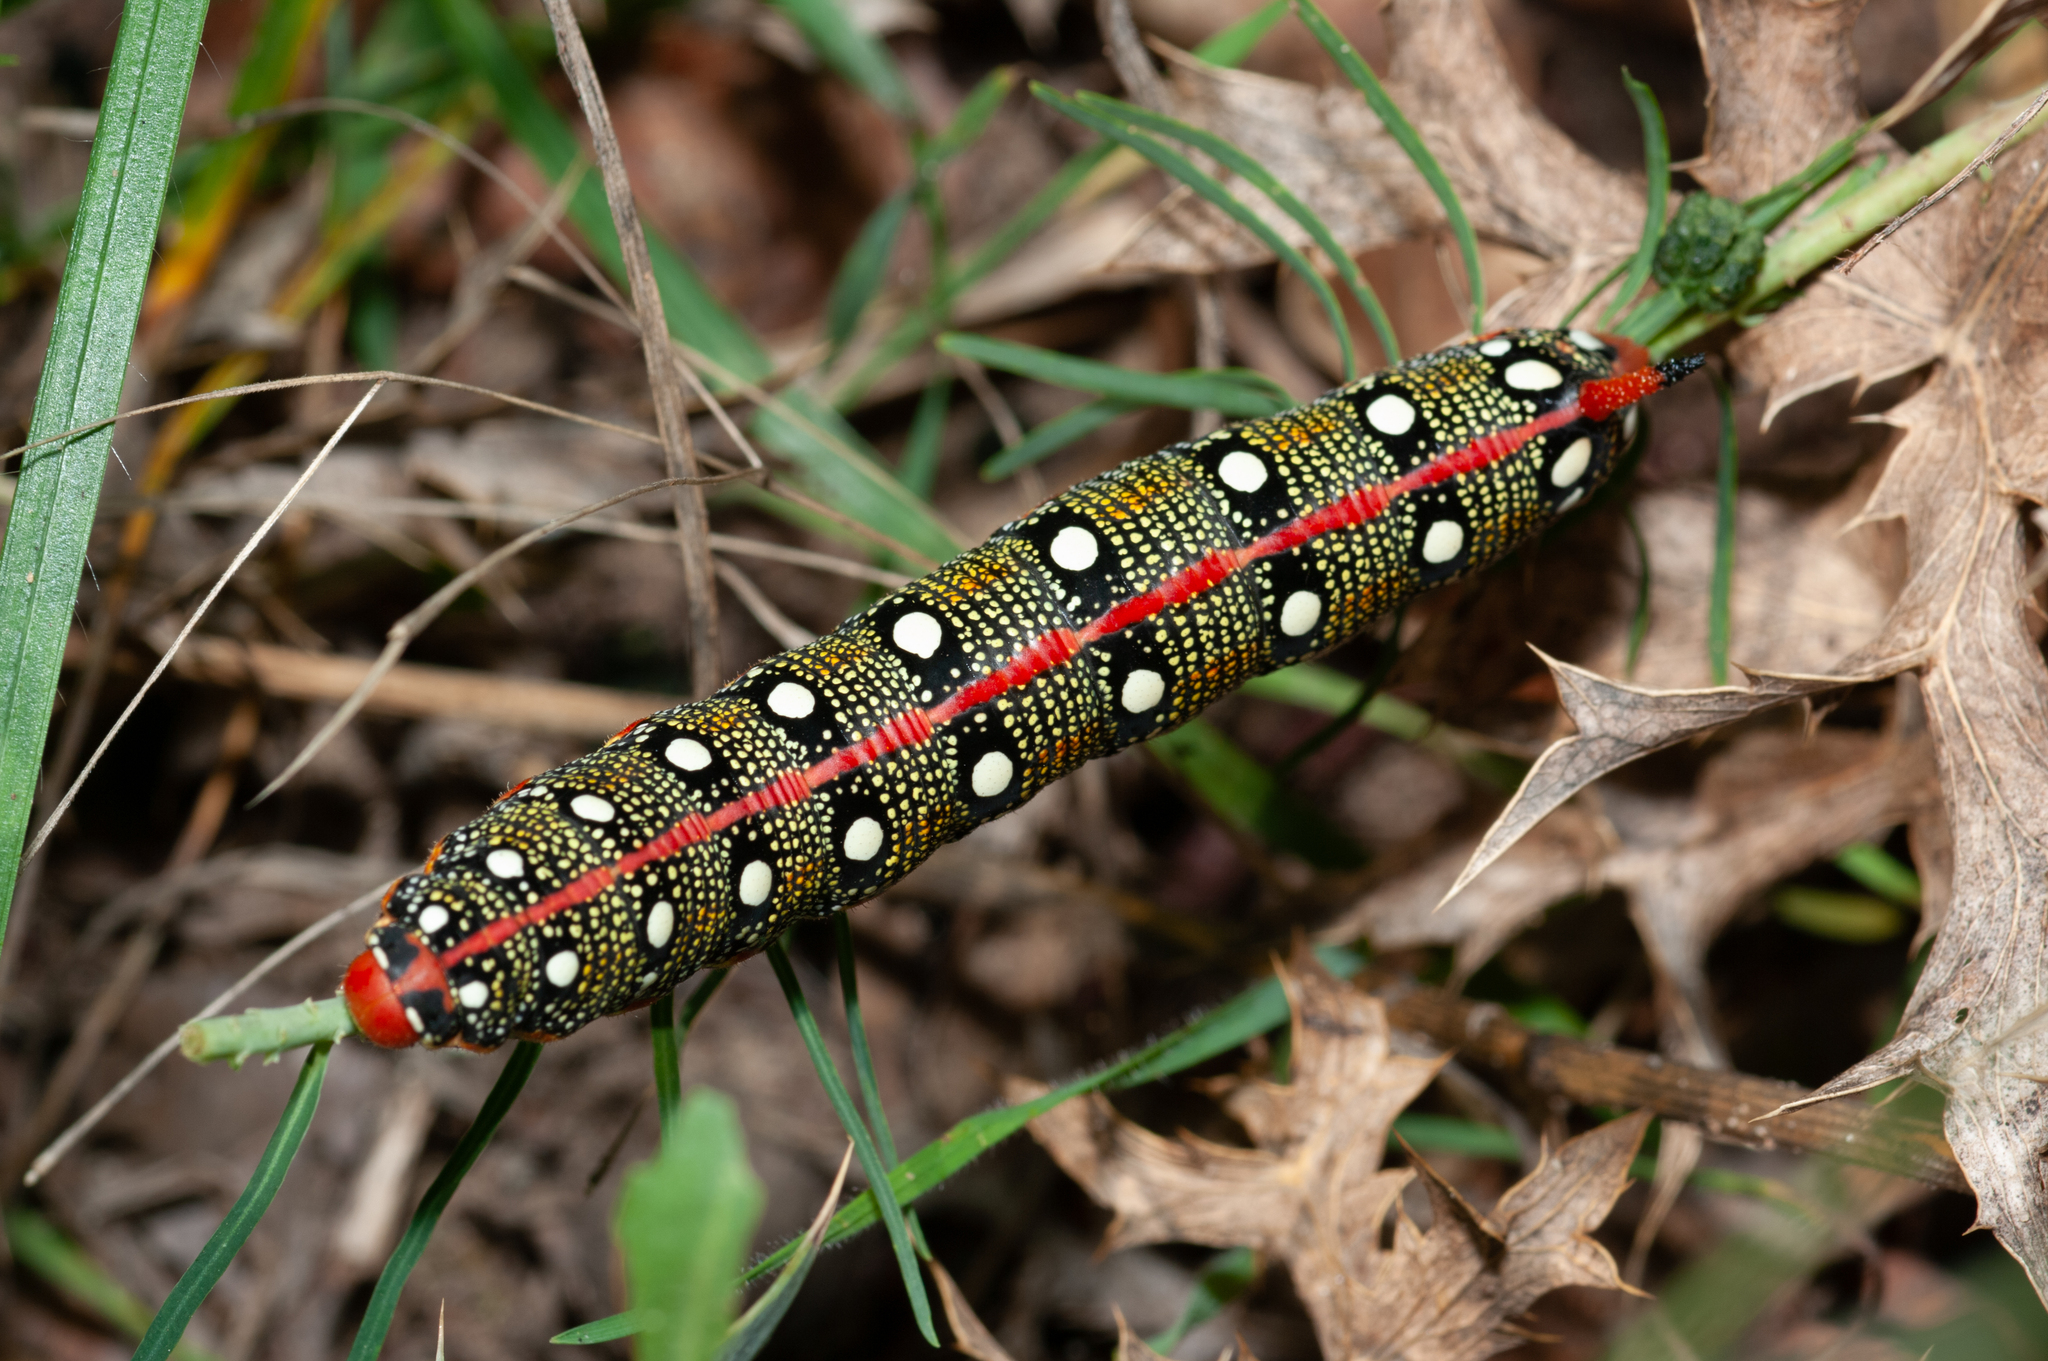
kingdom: Animalia
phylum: Arthropoda
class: Insecta
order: Lepidoptera
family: Sphingidae
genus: Hyles
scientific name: Hyles euphorbiae
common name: Spurge hawk-moth
